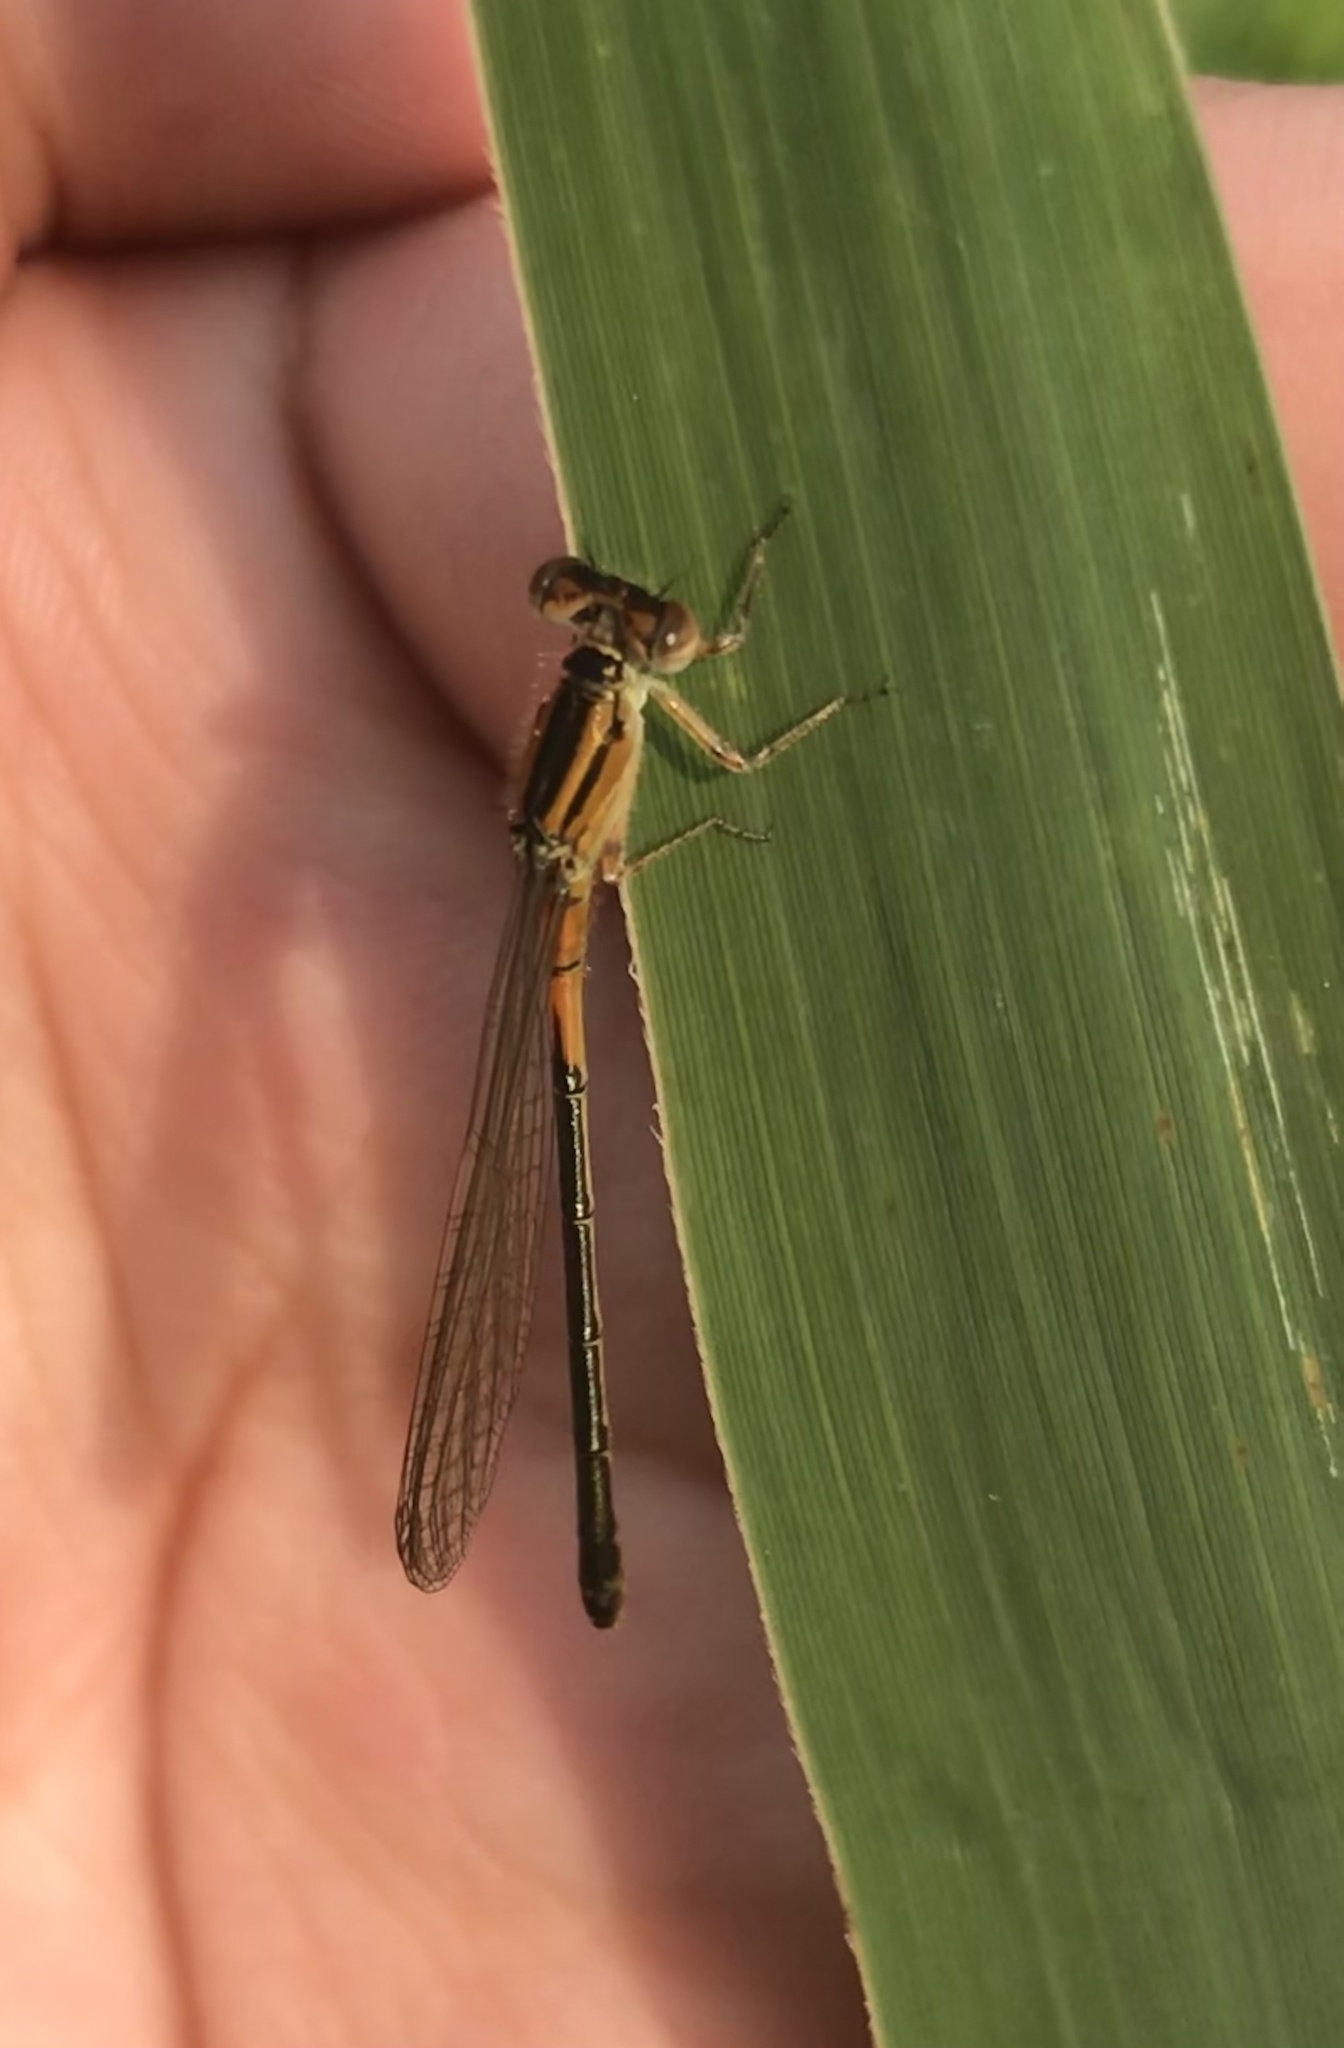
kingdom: Animalia
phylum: Arthropoda
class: Insecta
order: Odonata
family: Coenagrionidae
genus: Ischnura
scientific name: Ischnura verticalis
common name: Eastern forktail
